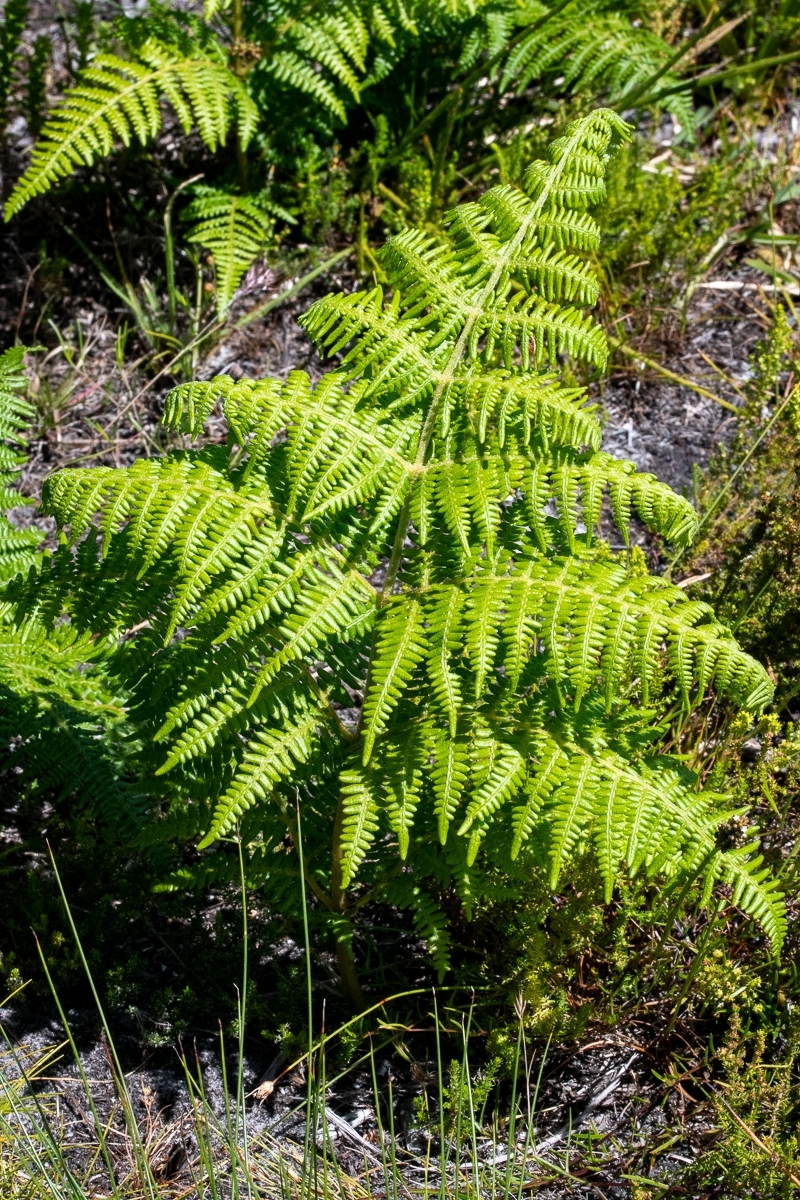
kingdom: Plantae
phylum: Tracheophyta
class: Polypodiopsida
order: Polypodiales
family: Dennstaedtiaceae
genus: Pteridium
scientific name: Pteridium aquilinum
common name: Bracken
